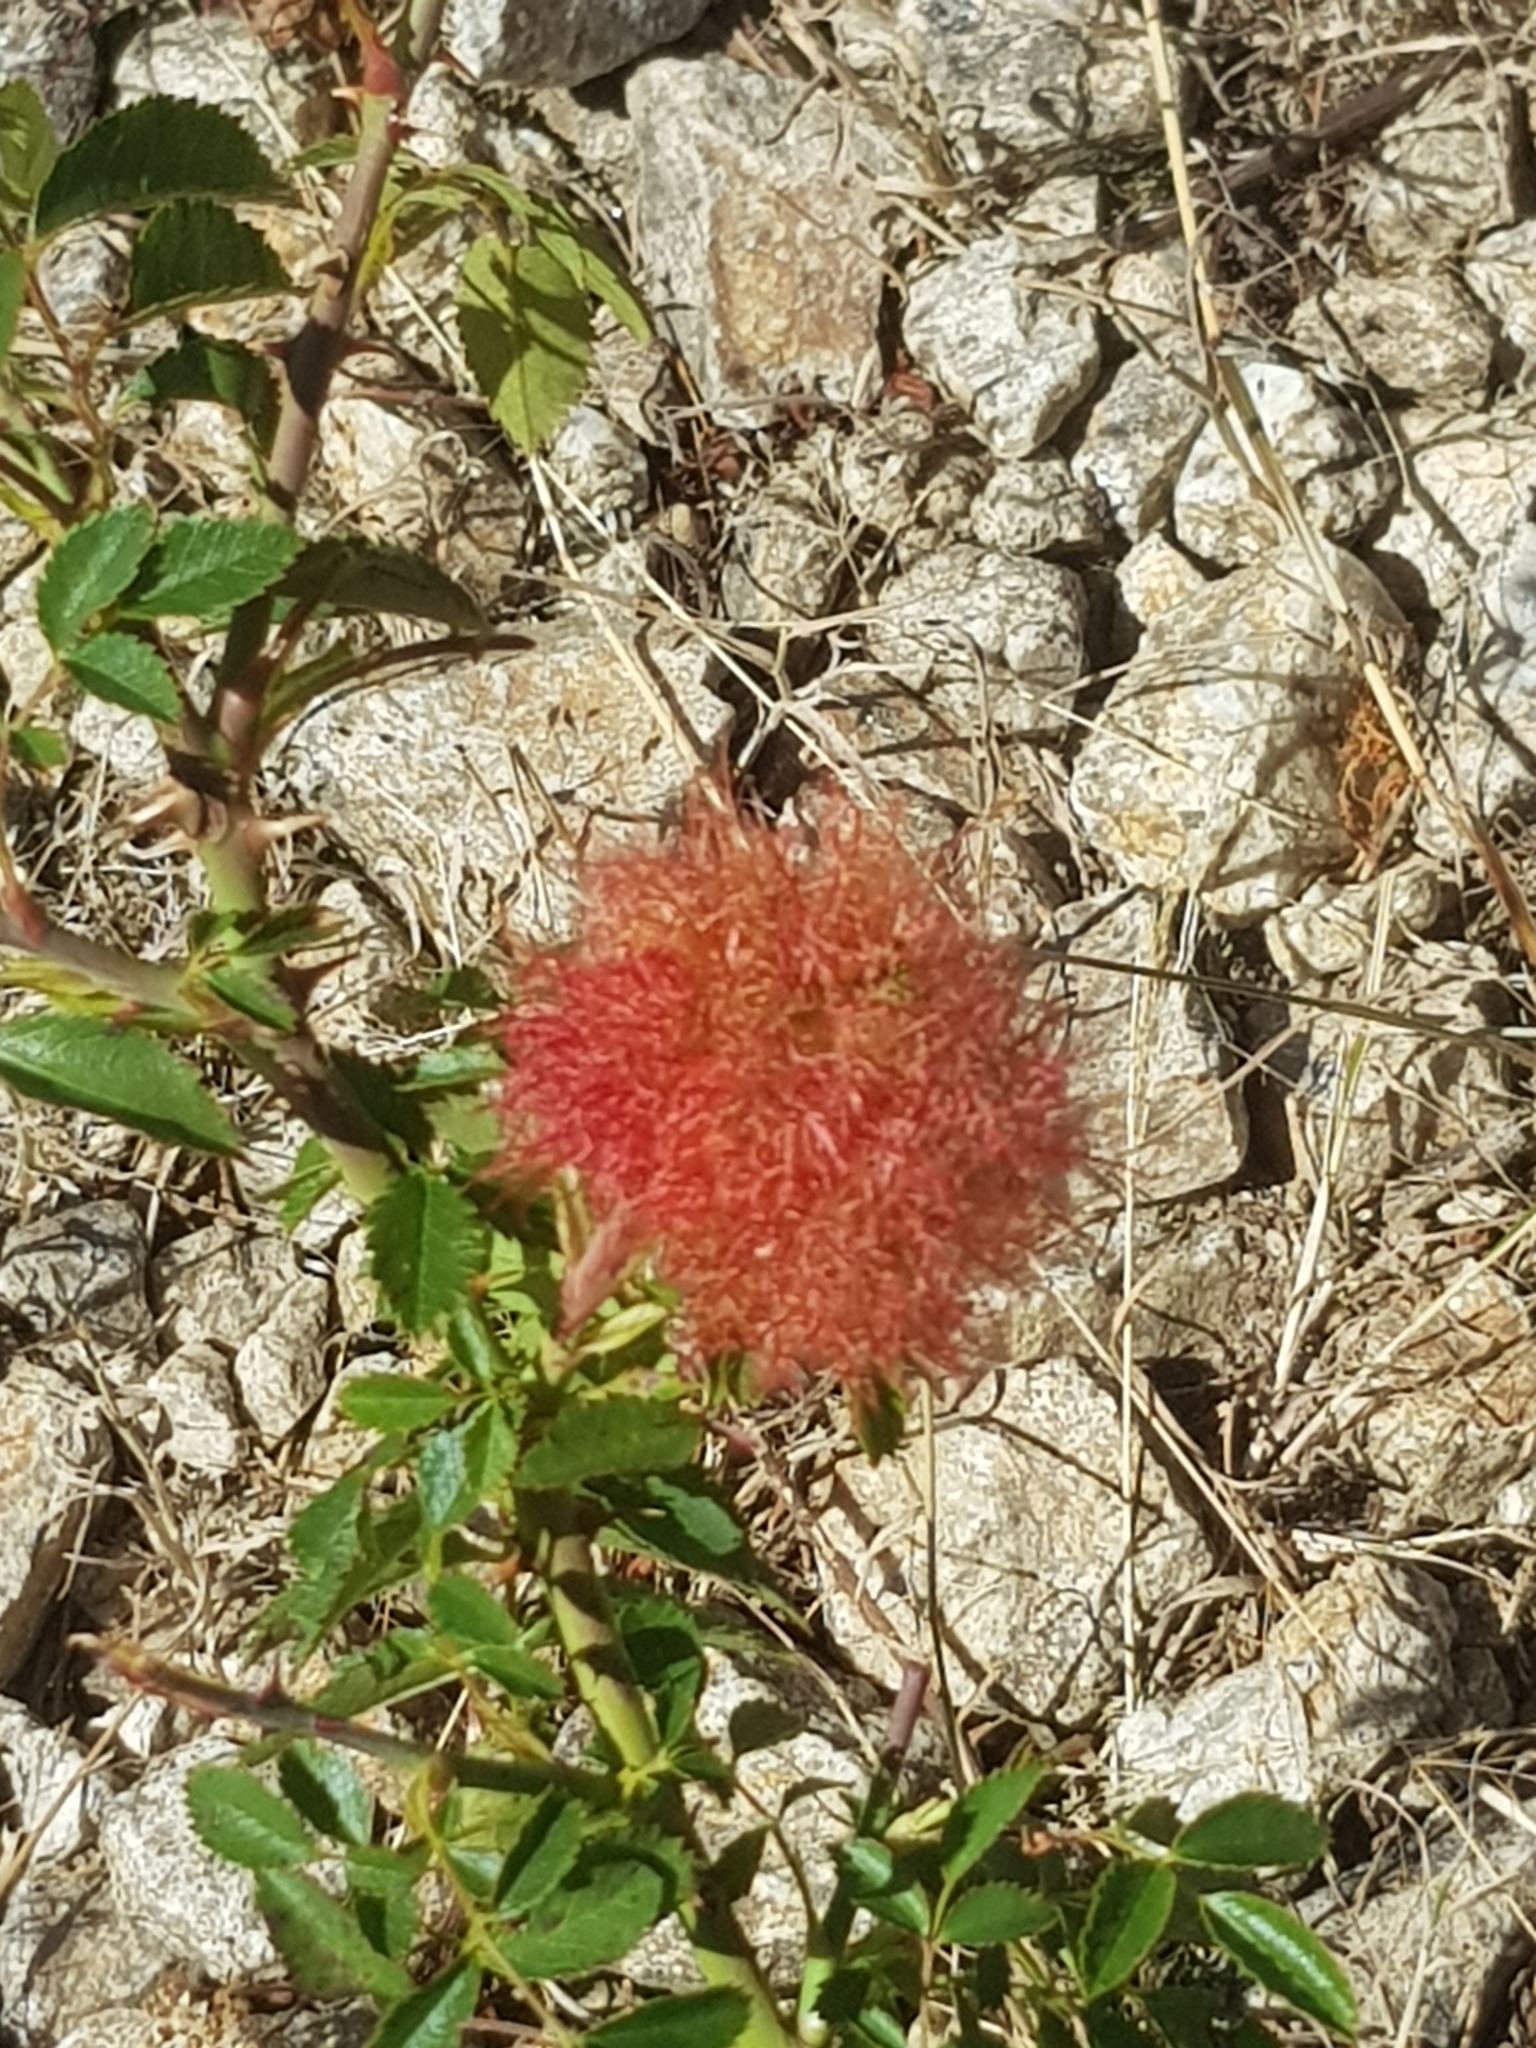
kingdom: Animalia
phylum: Arthropoda
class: Insecta
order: Hymenoptera
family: Cynipidae
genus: Diplolepis
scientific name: Diplolepis rosae
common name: Bedeguar gall
